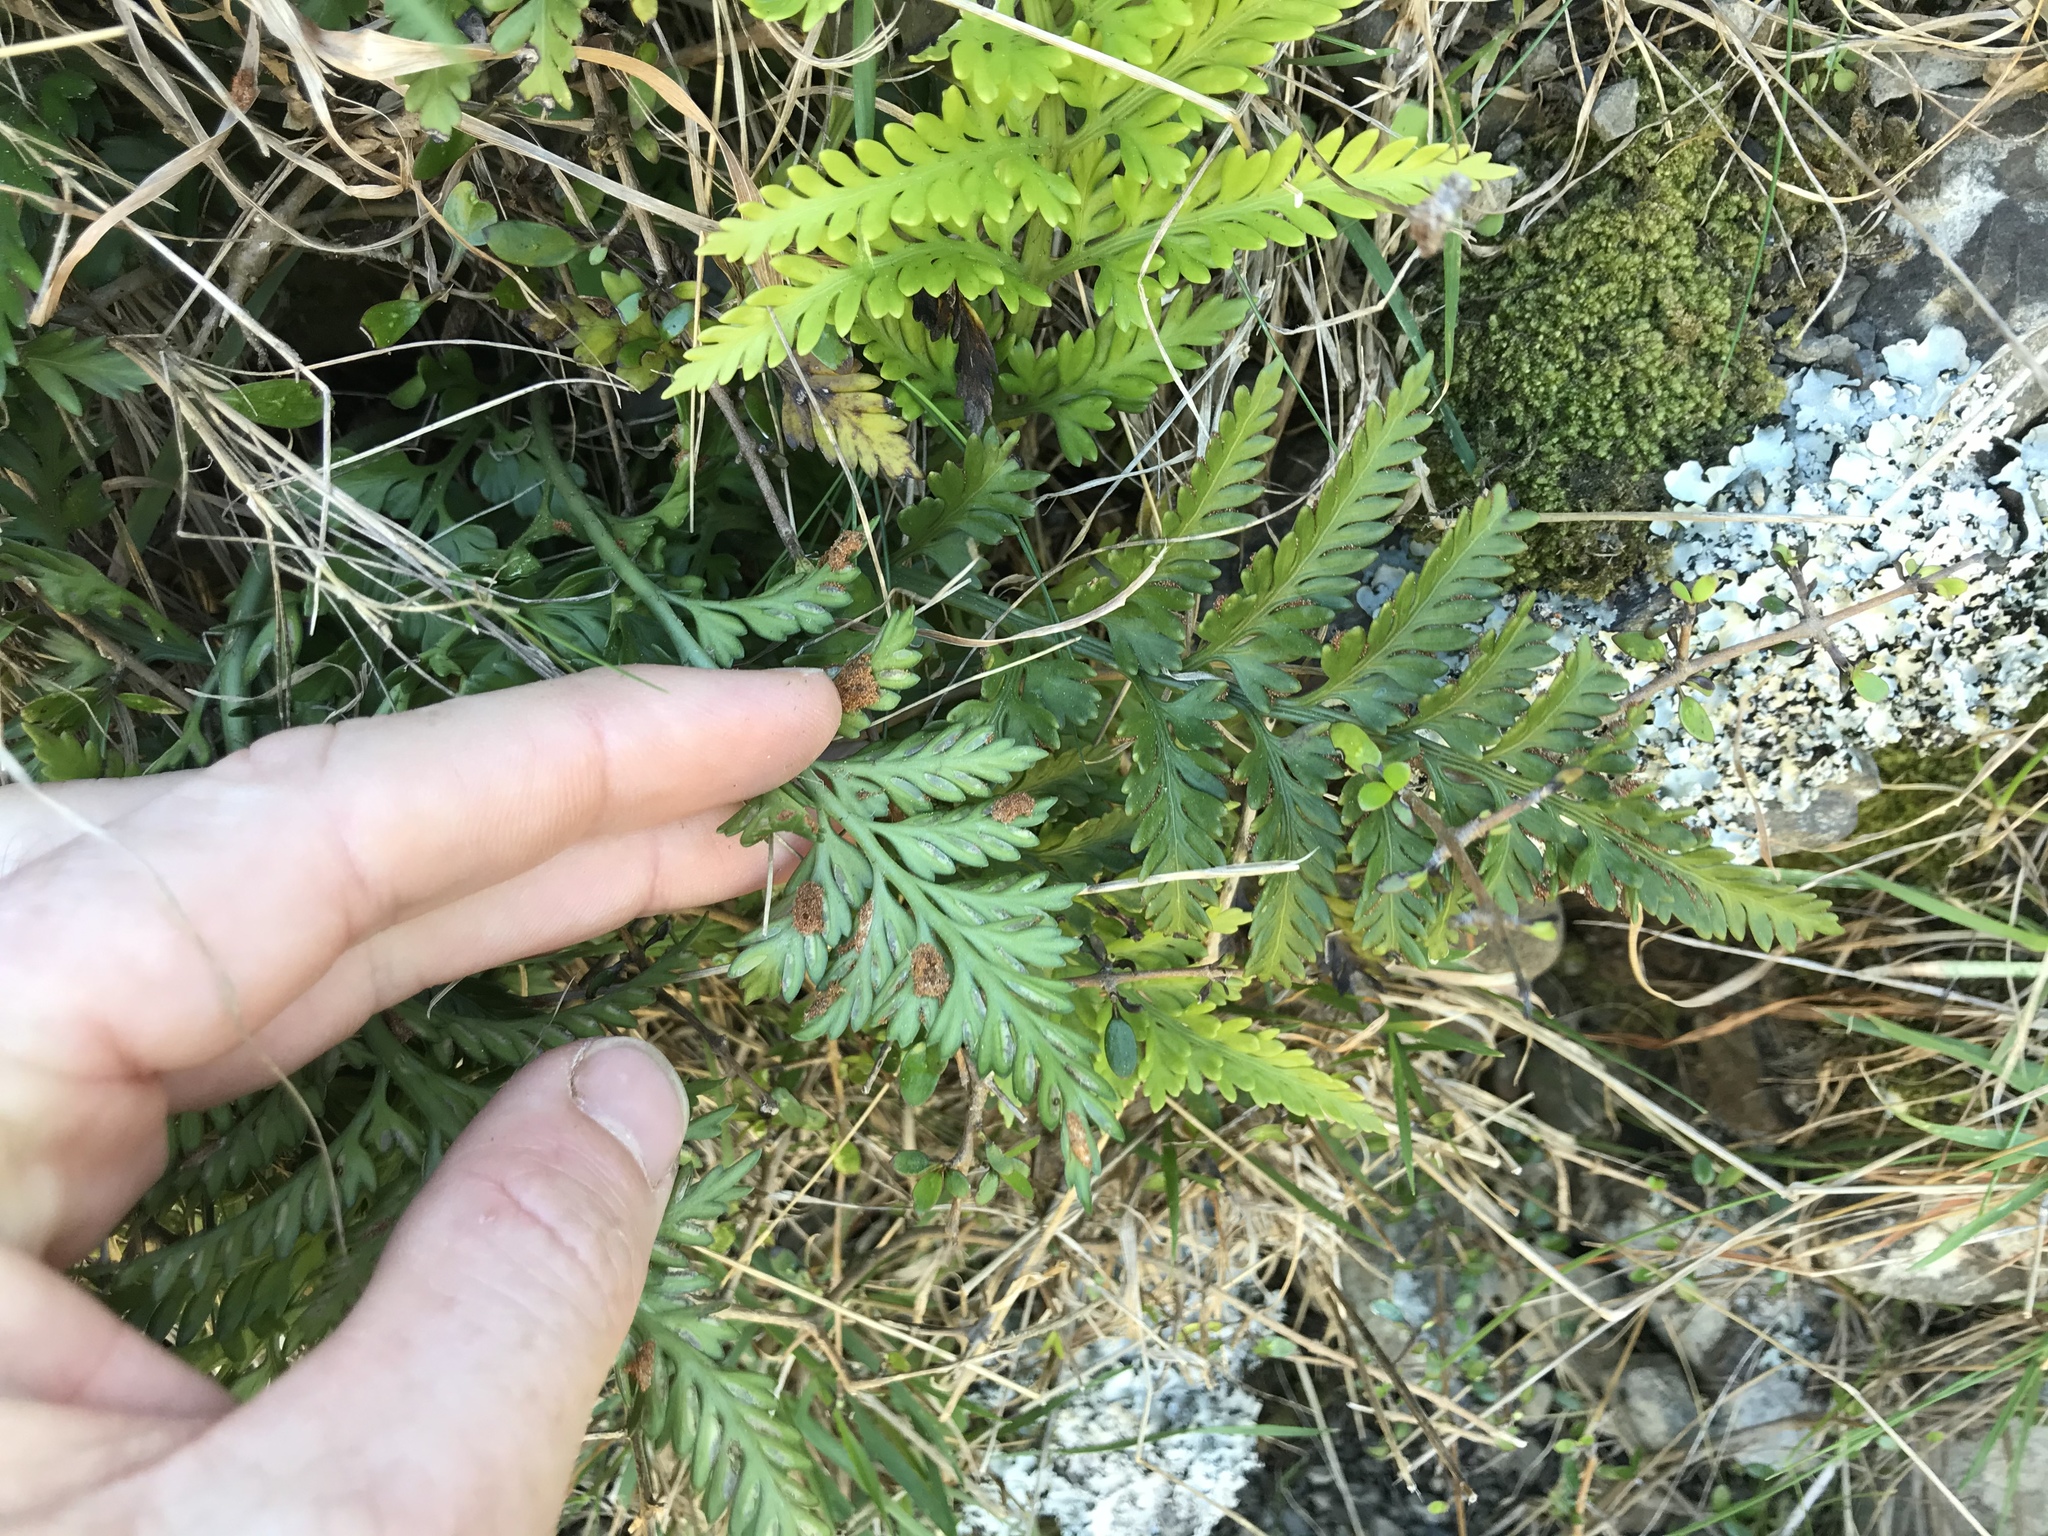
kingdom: Plantae
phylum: Tracheophyta
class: Polypodiopsida
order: Polypodiales
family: Aspleniaceae
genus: Asplenium
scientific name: Asplenium appendiculatum
